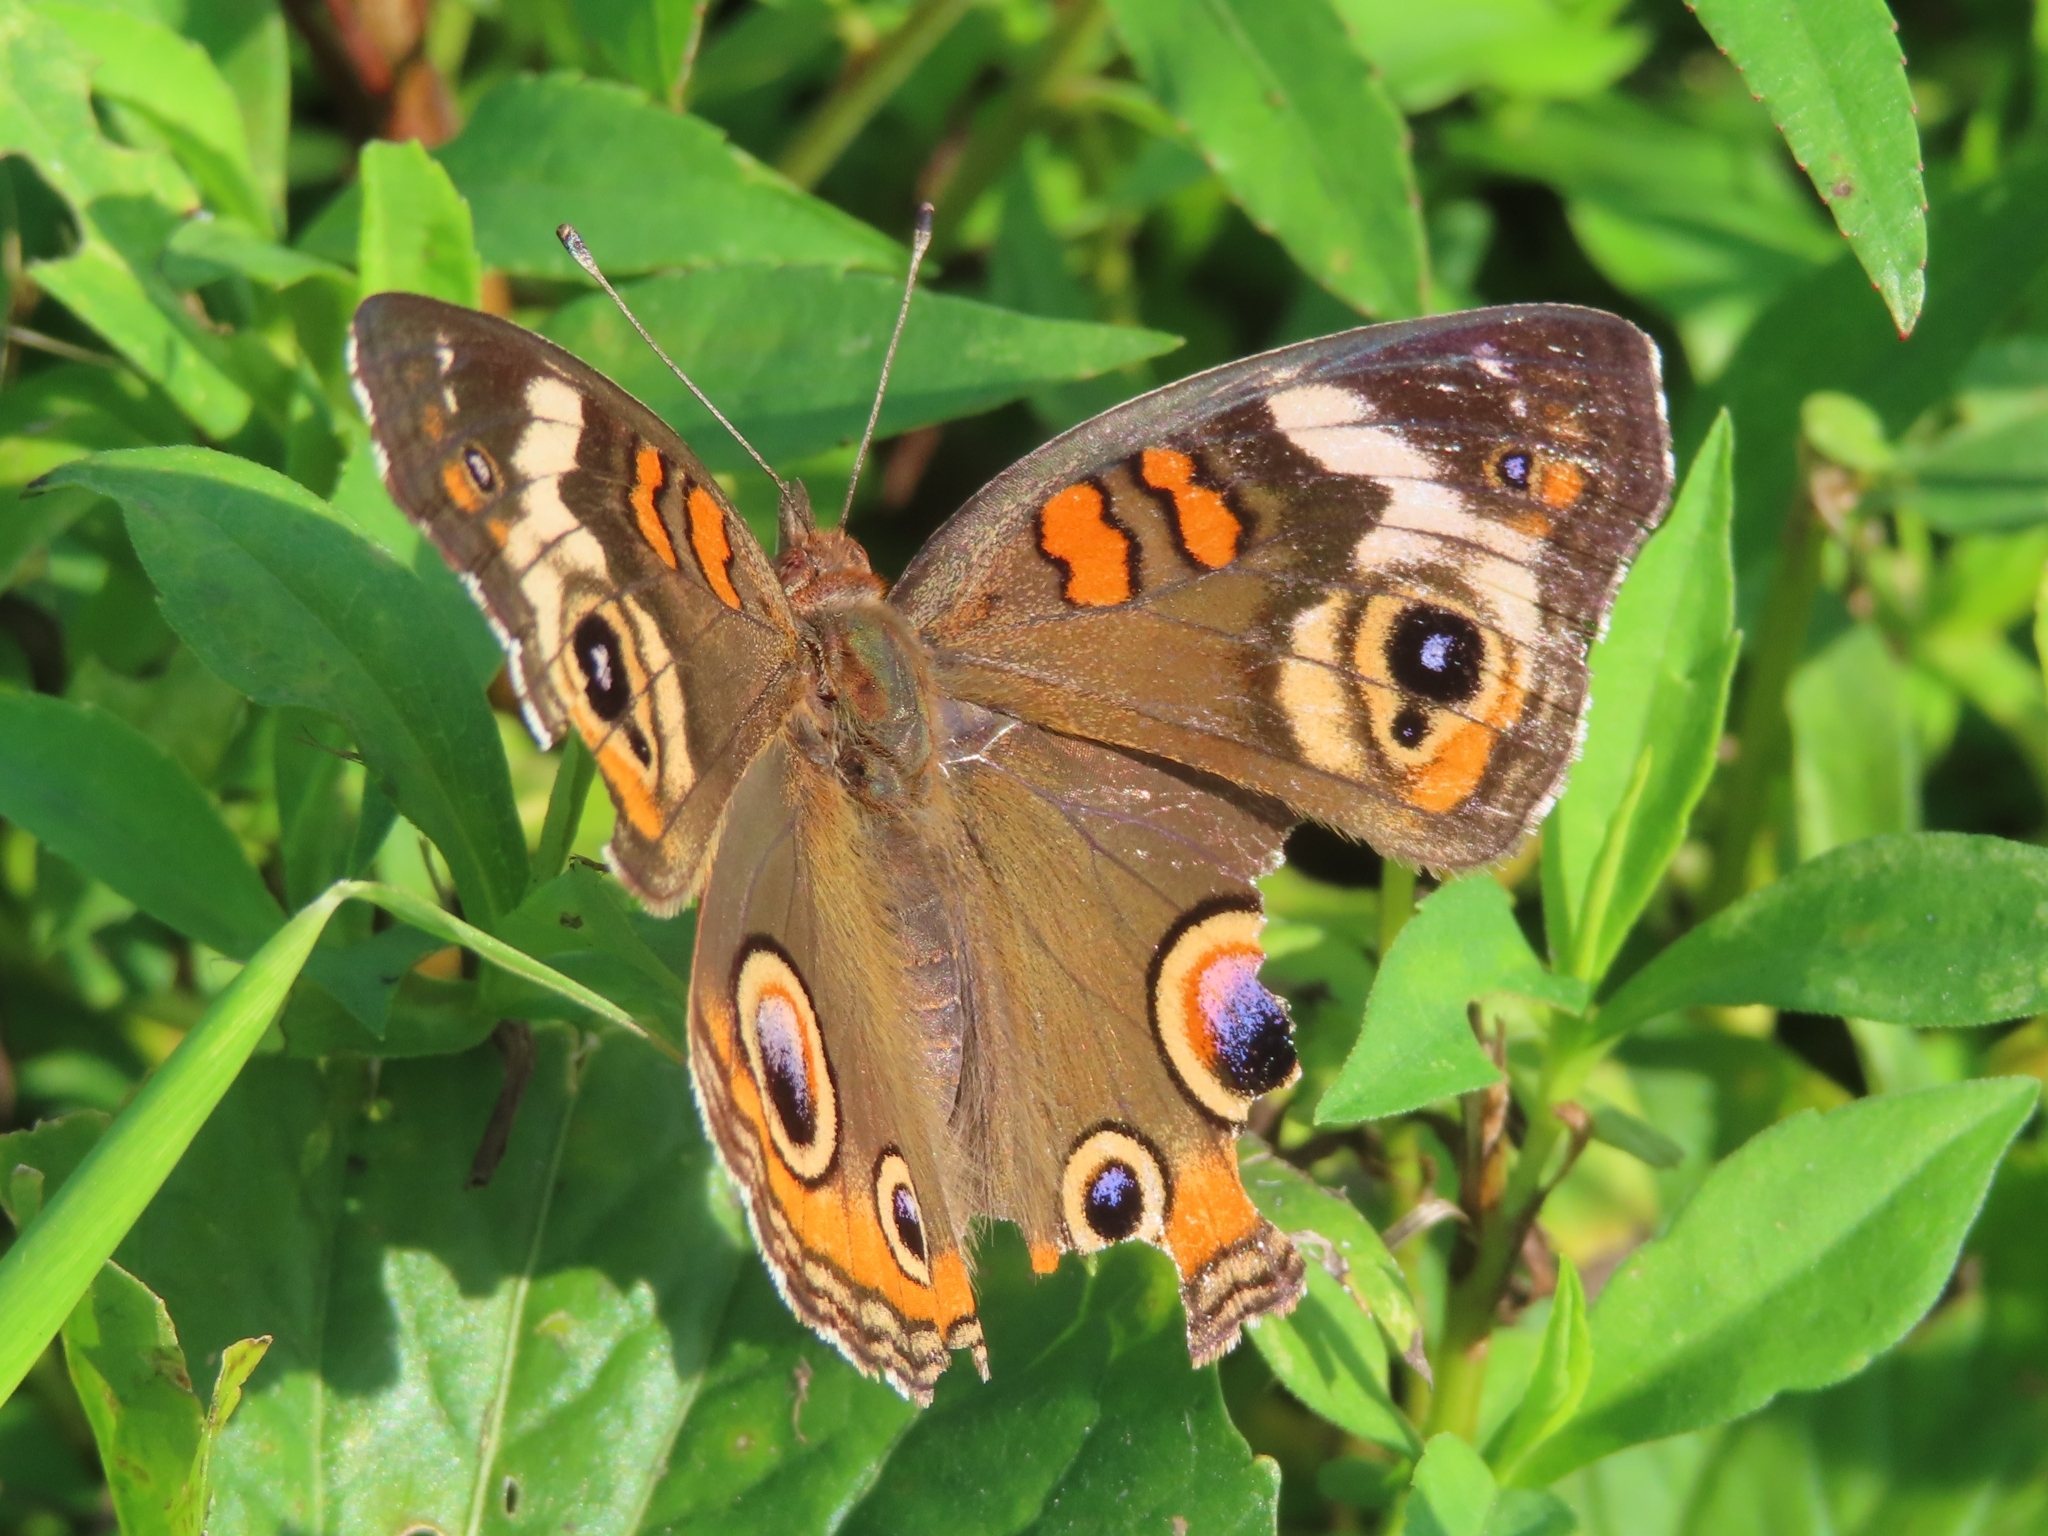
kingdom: Animalia
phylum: Arthropoda
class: Insecta
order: Lepidoptera
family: Nymphalidae
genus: Junonia
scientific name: Junonia coenia
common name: Common buckeye
